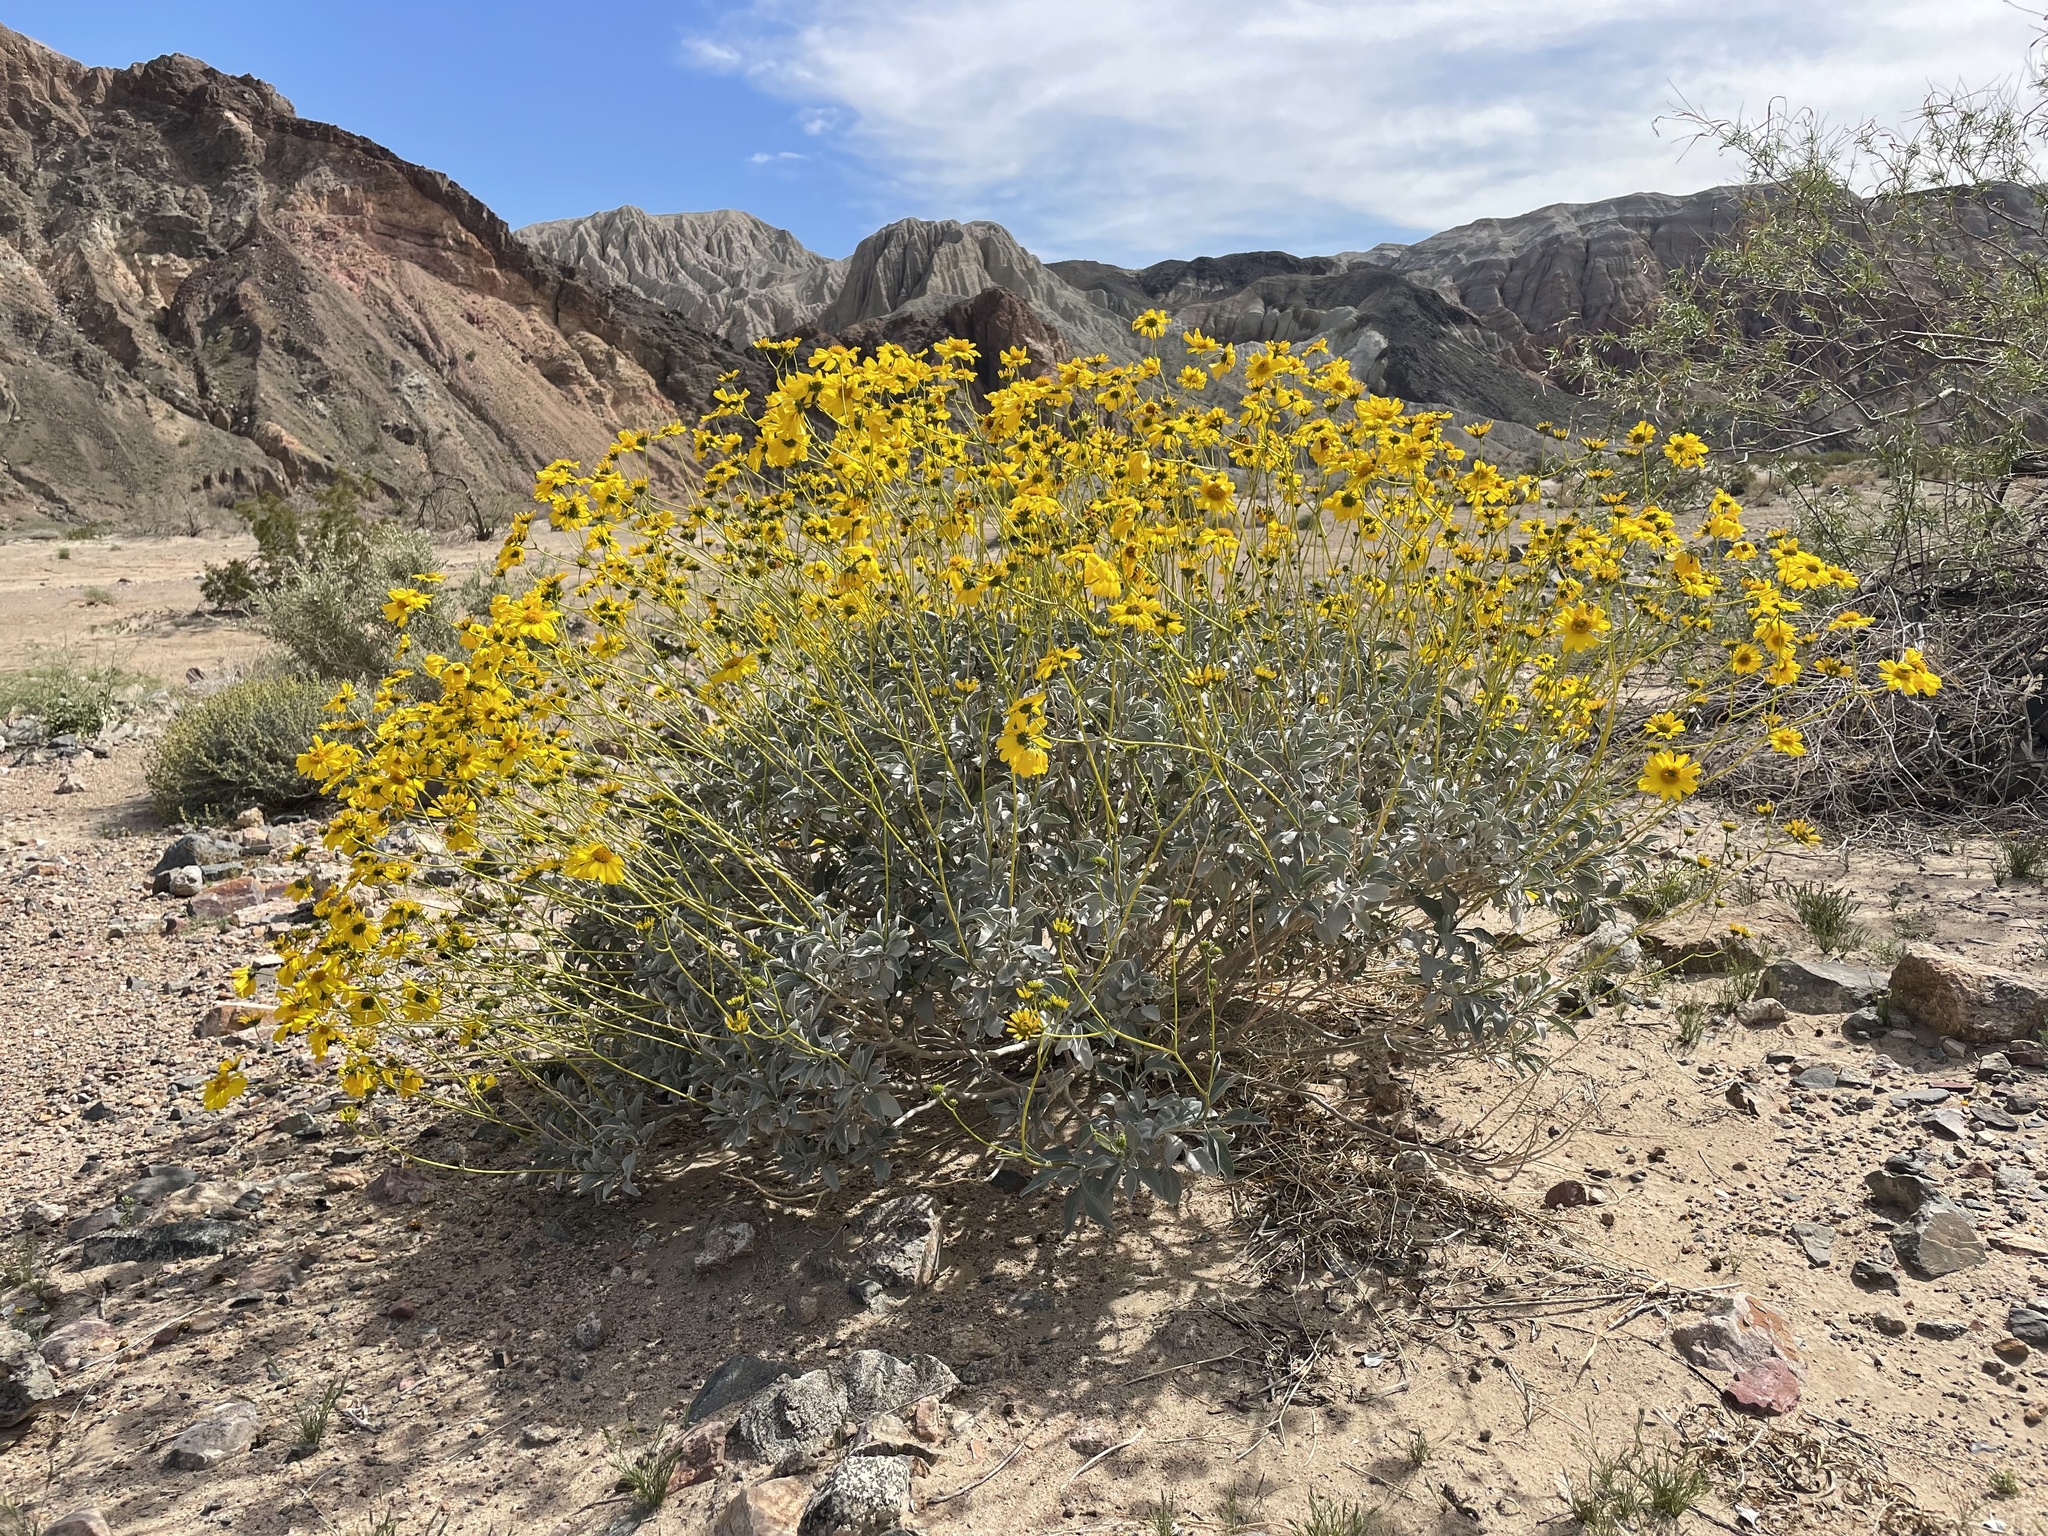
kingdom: Plantae
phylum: Tracheophyta
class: Magnoliopsida
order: Asterales
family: Asteraceae
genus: Encelia
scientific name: Encelia farinosa
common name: Brittlebush
